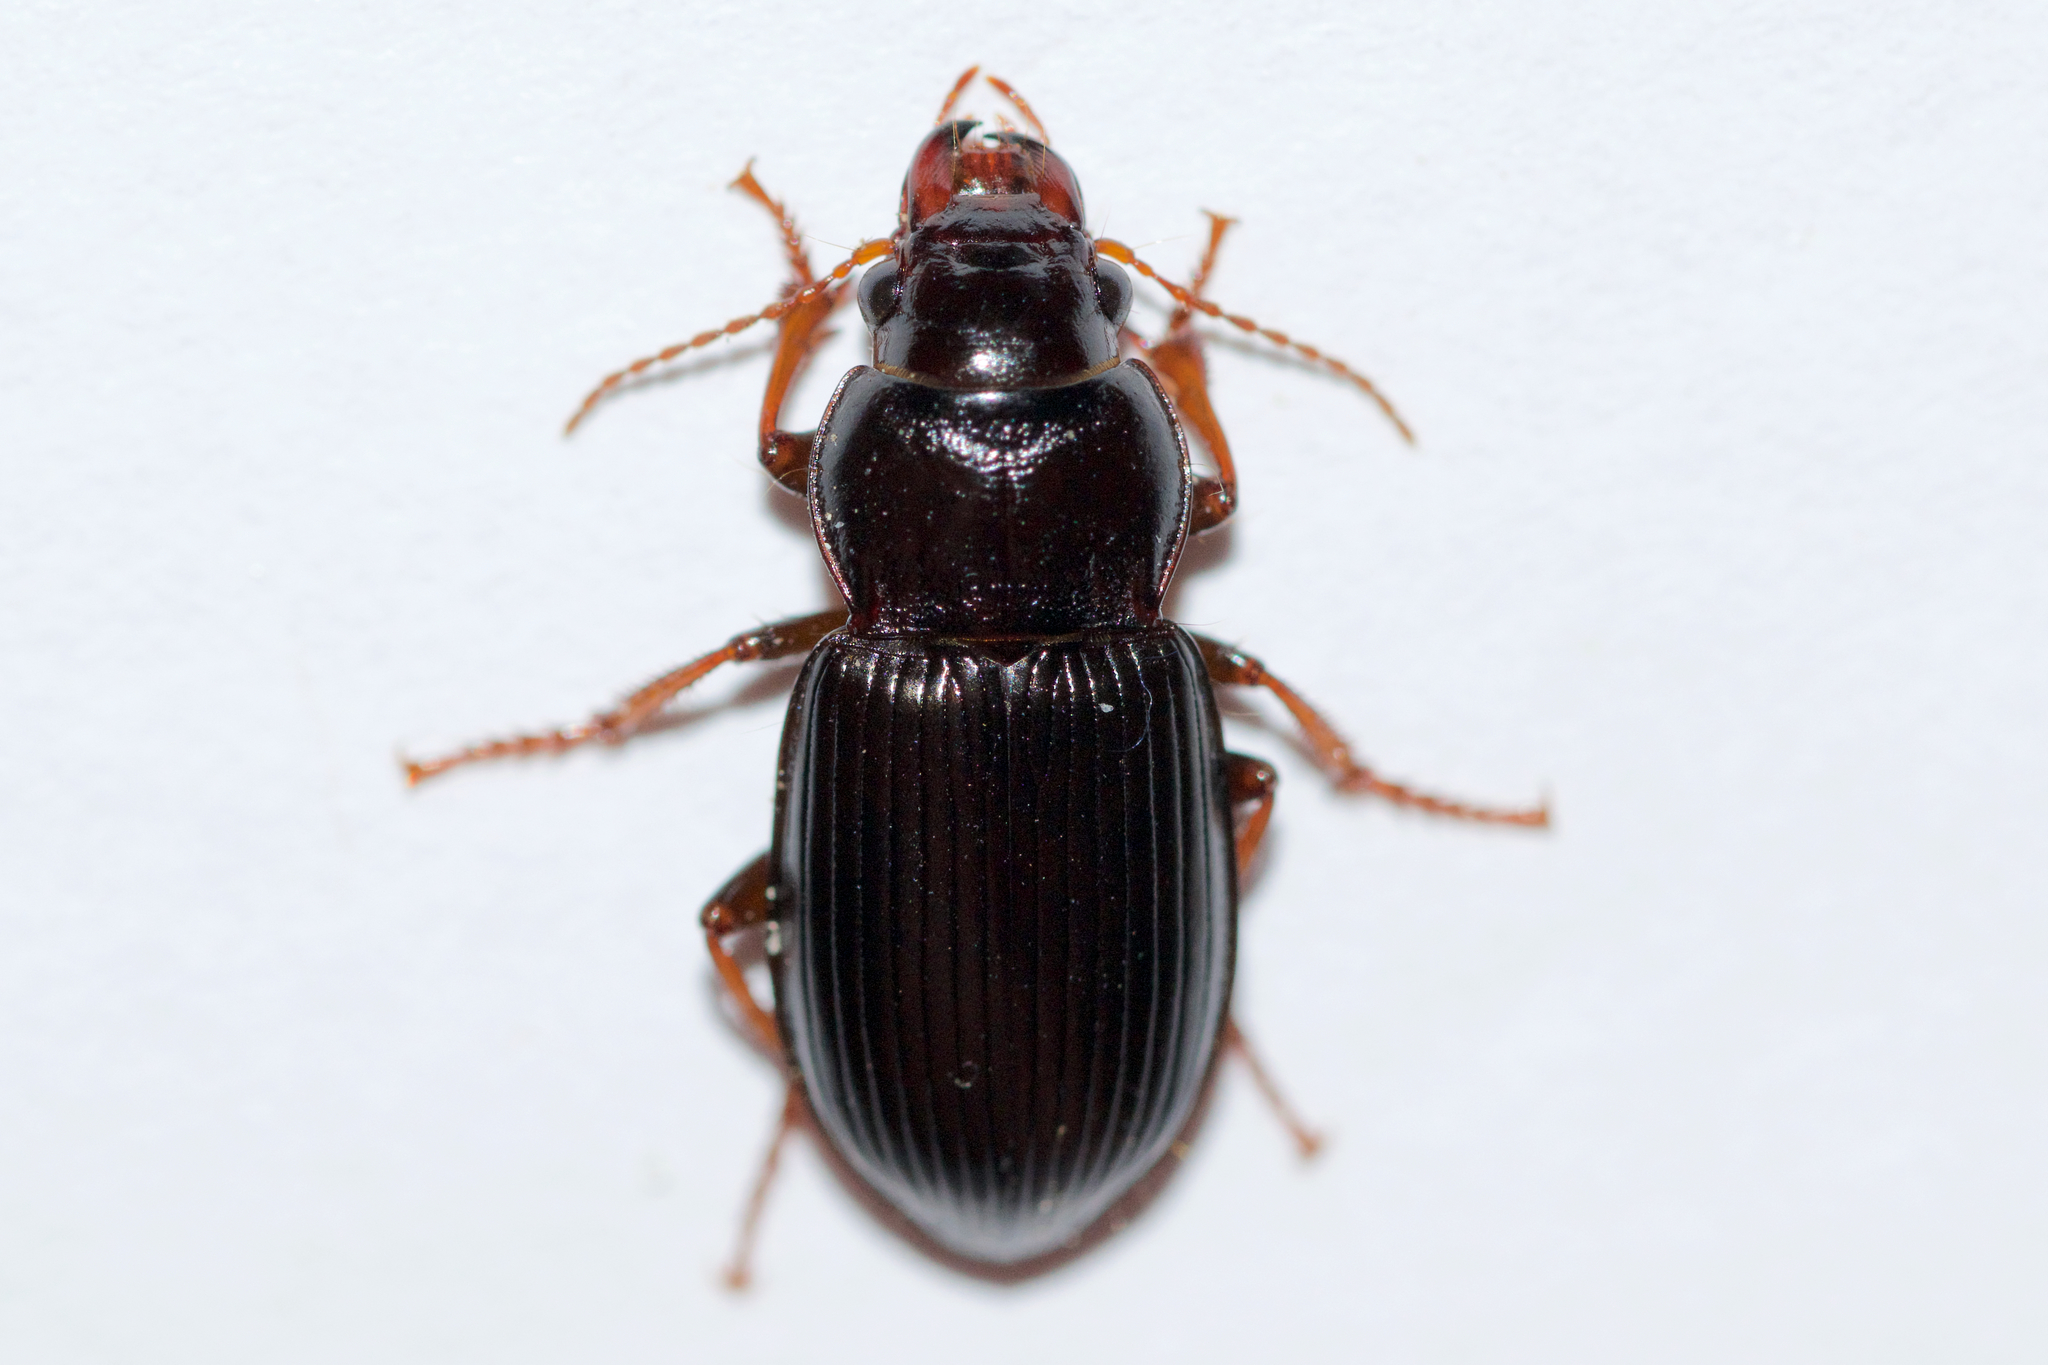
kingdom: Animalia
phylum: Arthropoda
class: Insecta
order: Coleoptera
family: Carabidae
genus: Amara
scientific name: Amara aulica
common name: Princely harp ground beetle
